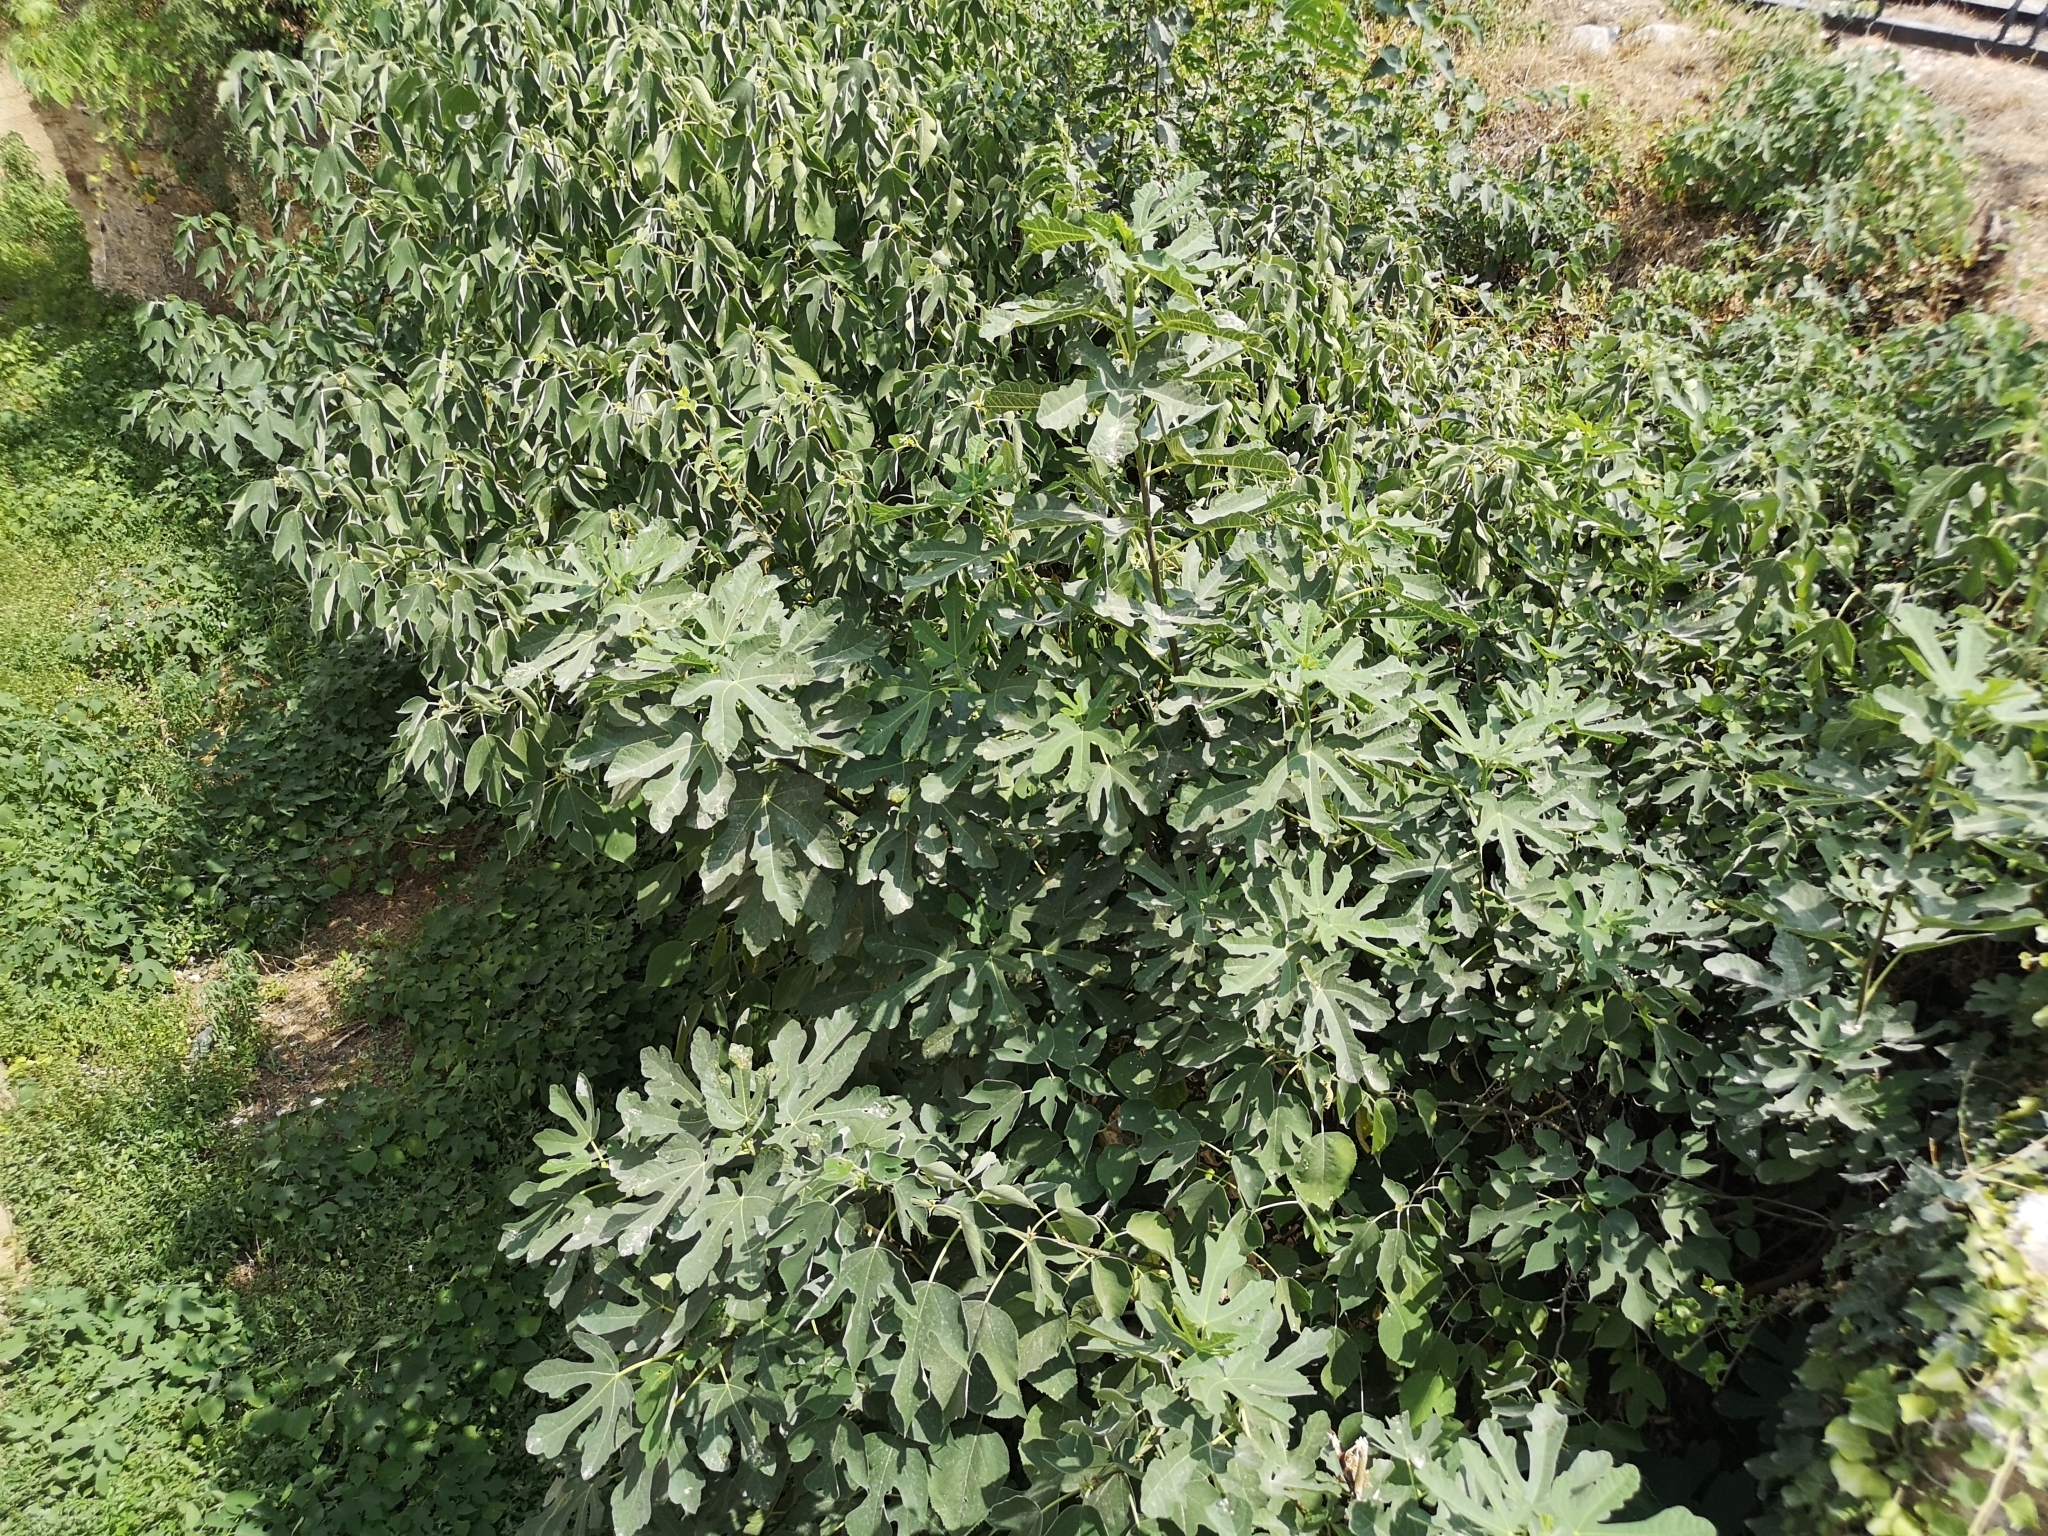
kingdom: Plantae
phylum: Tracheophyta
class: Magnoliopsida
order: Rosales
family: Moraceae
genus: Ficus
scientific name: Ficus carica
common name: Fig
